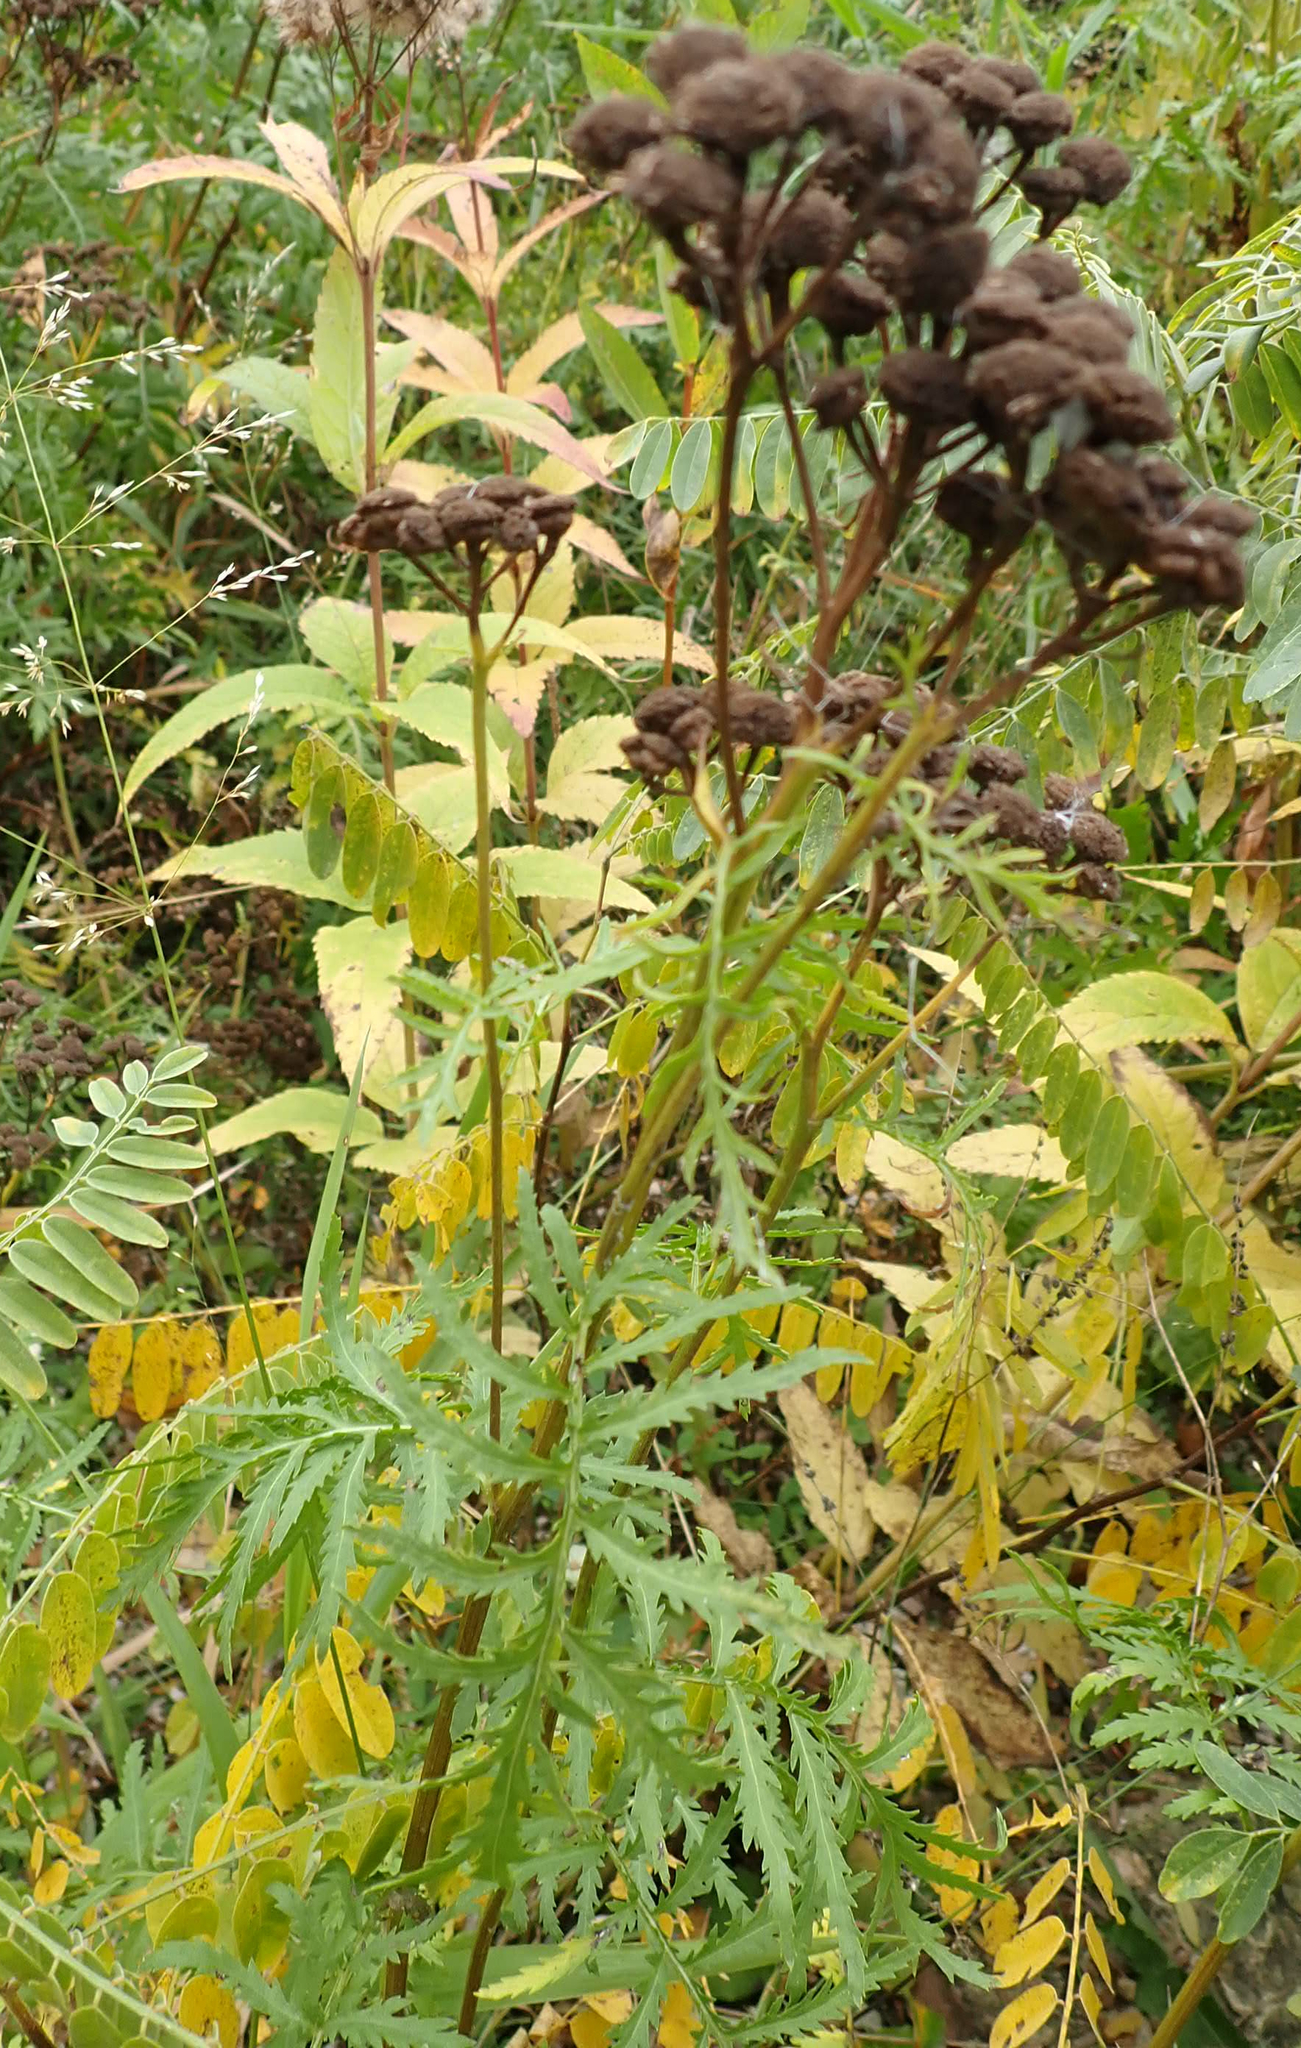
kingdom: Plantae
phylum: Tracheophyta
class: Magnoliopsida
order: Asterales
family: Asteraceae
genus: Tanacetum
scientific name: Tanacetum vulgare
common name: Common tansy
